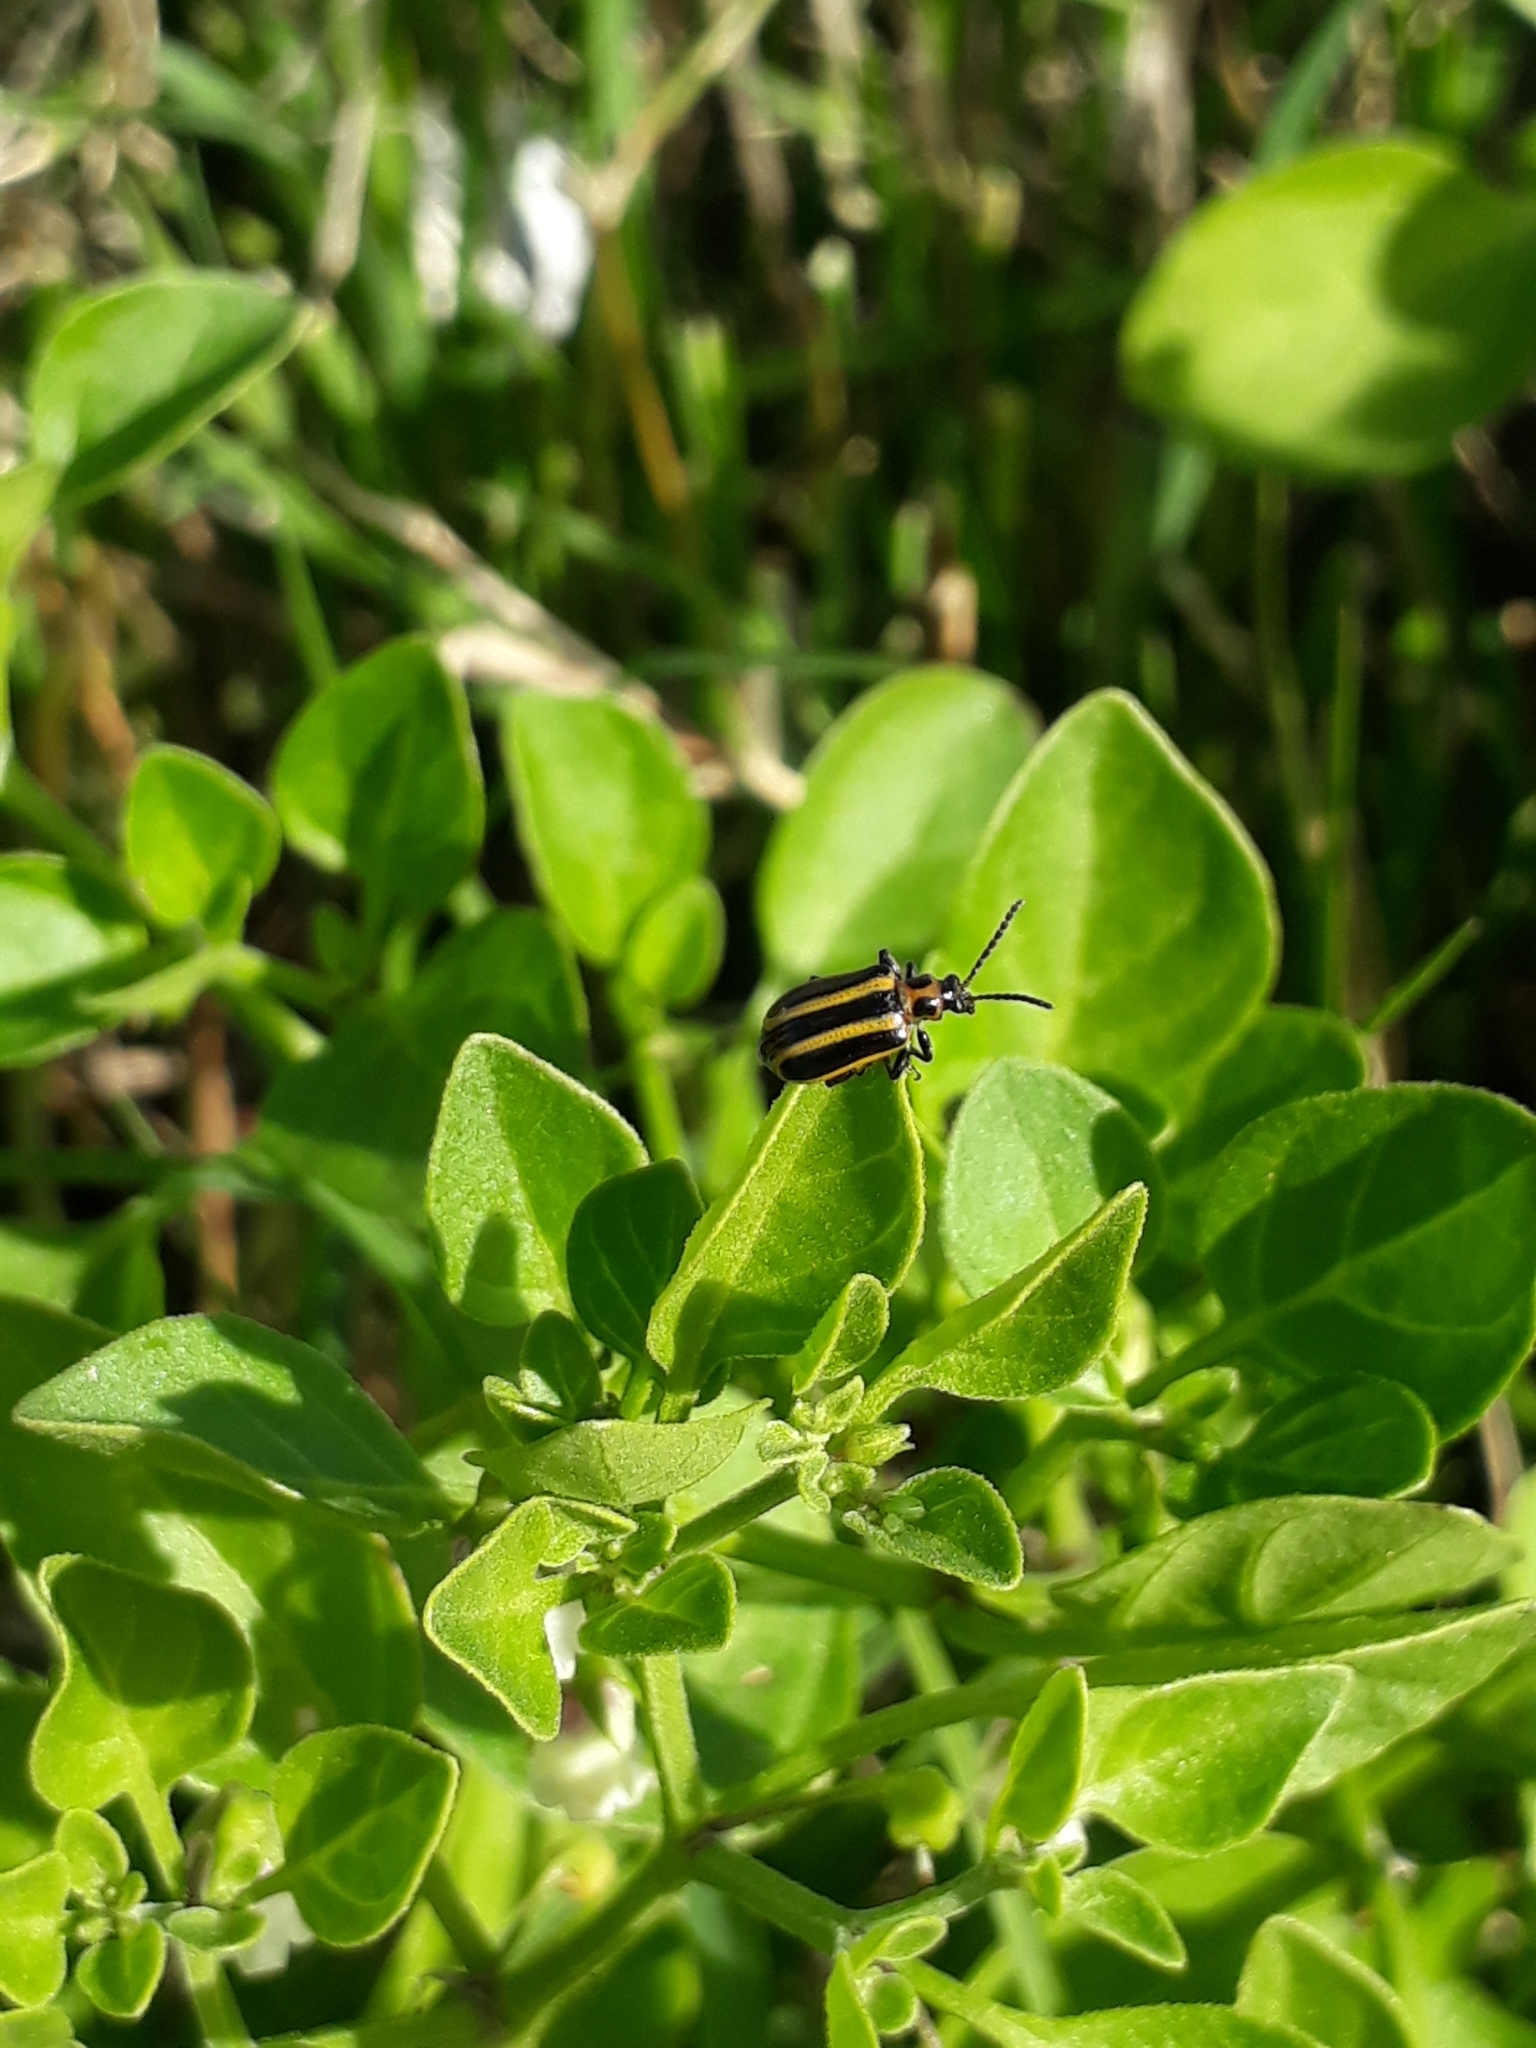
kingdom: Animalia
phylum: Arthropoda
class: Insecta
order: Coleoptera
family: Chrysomelidae
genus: Lema
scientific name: Lema bilineata
